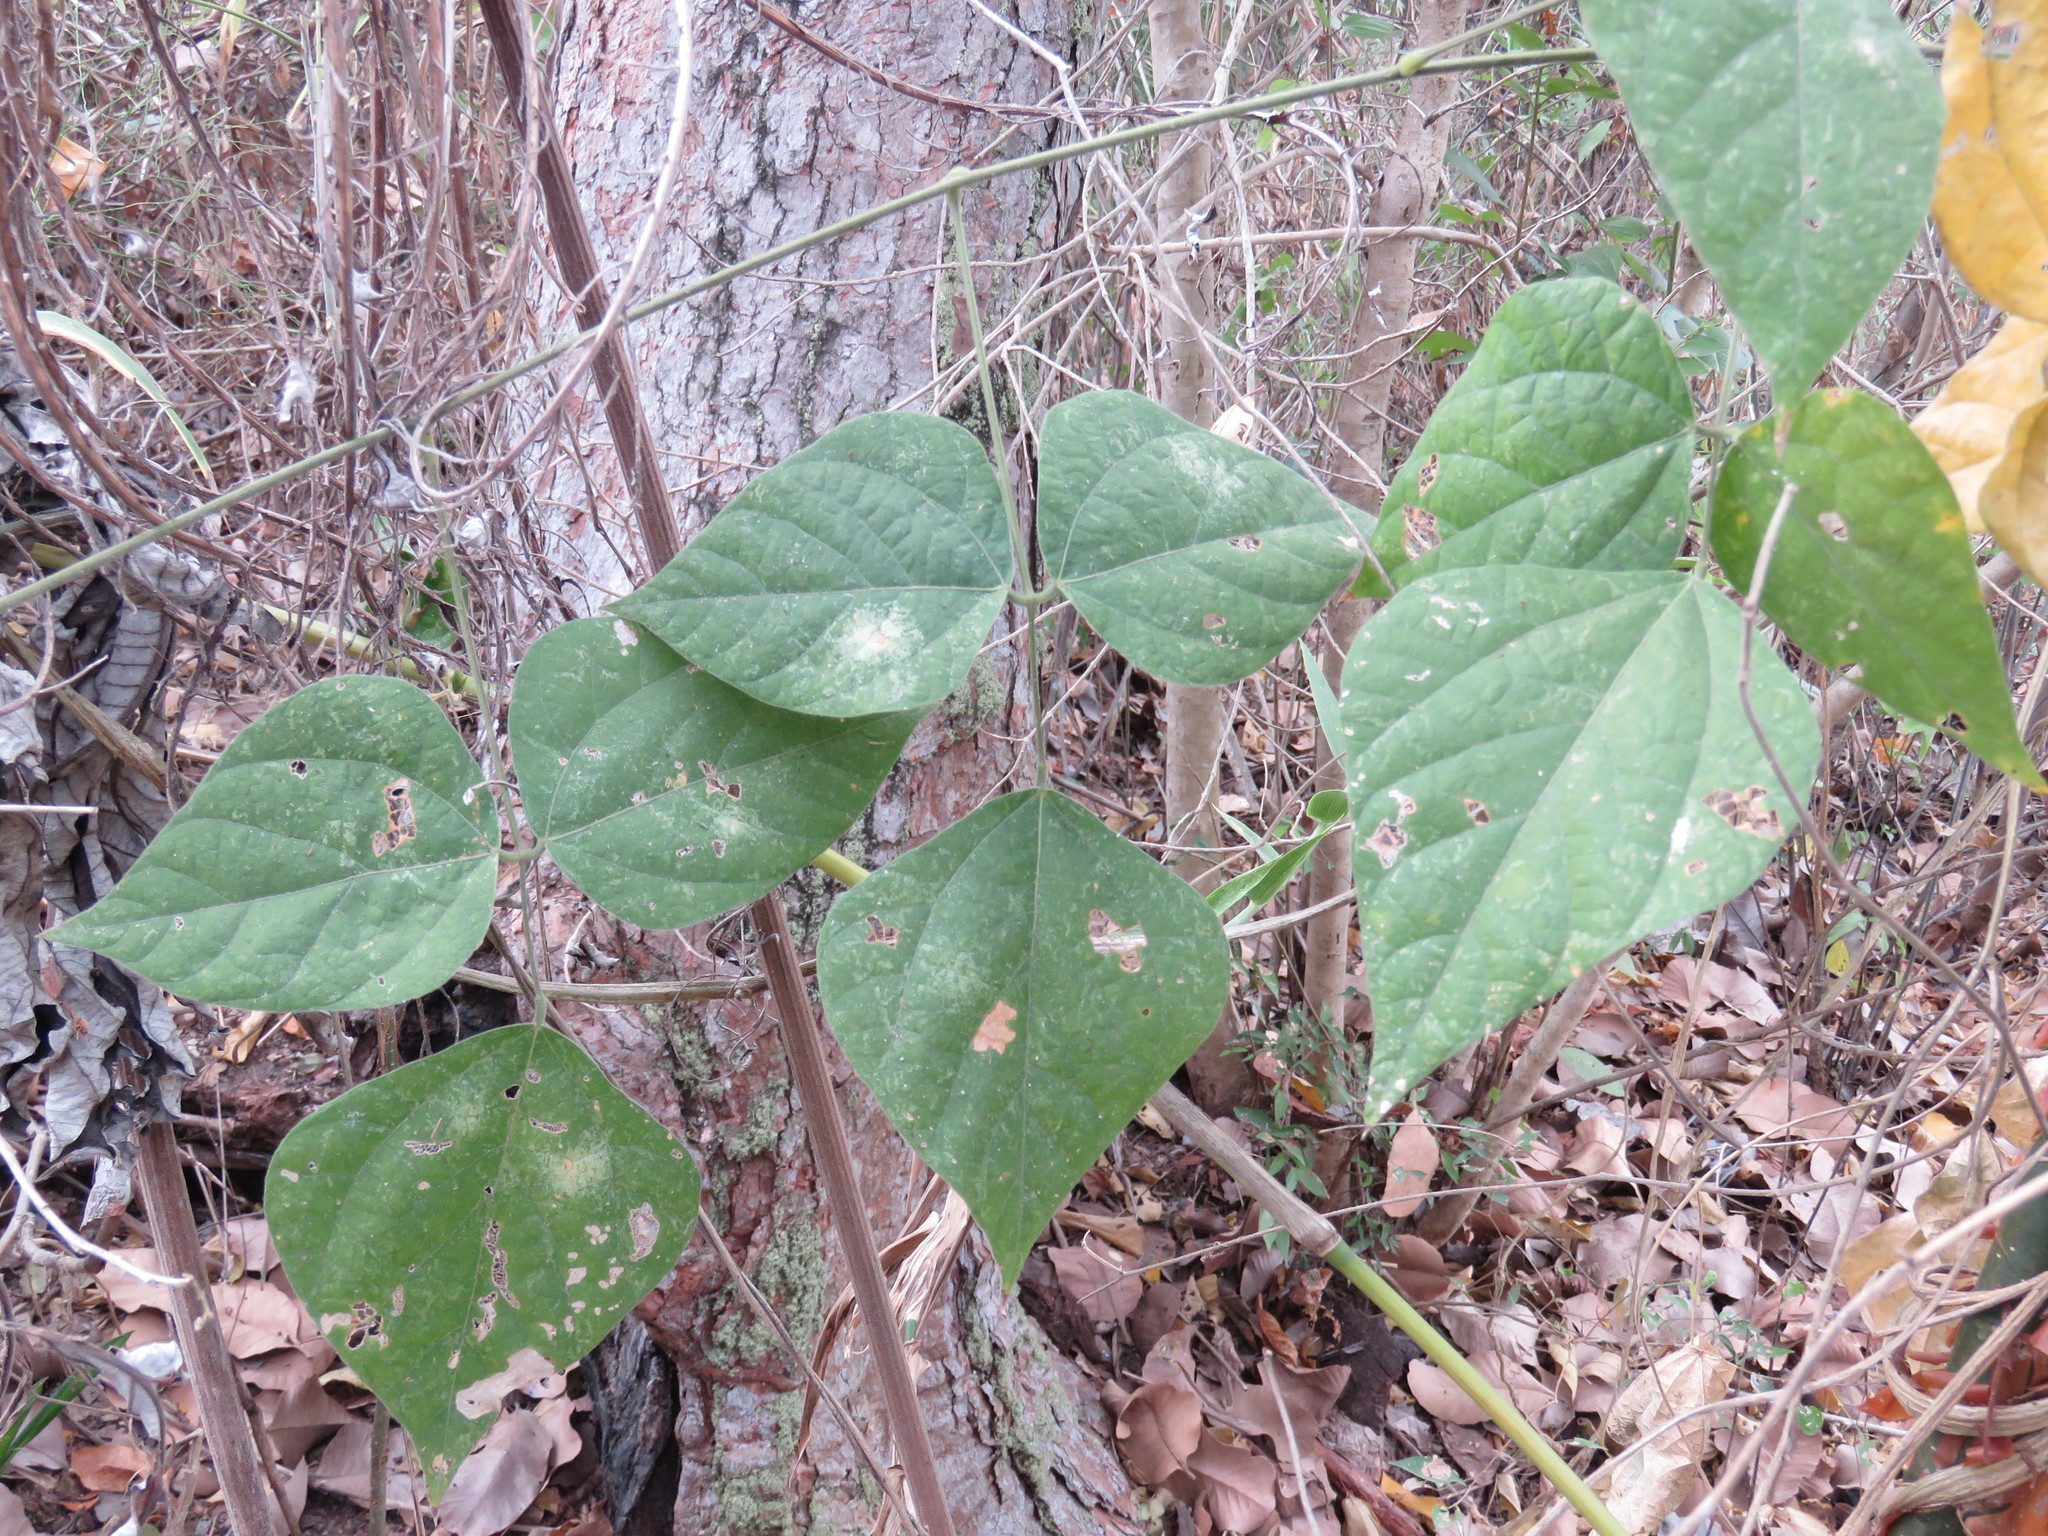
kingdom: Plantae
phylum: Tracheophyta
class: Magnoliopsida
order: Fabales
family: Fabaceae
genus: Rhynchosia
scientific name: Rhynchosia precatoria
